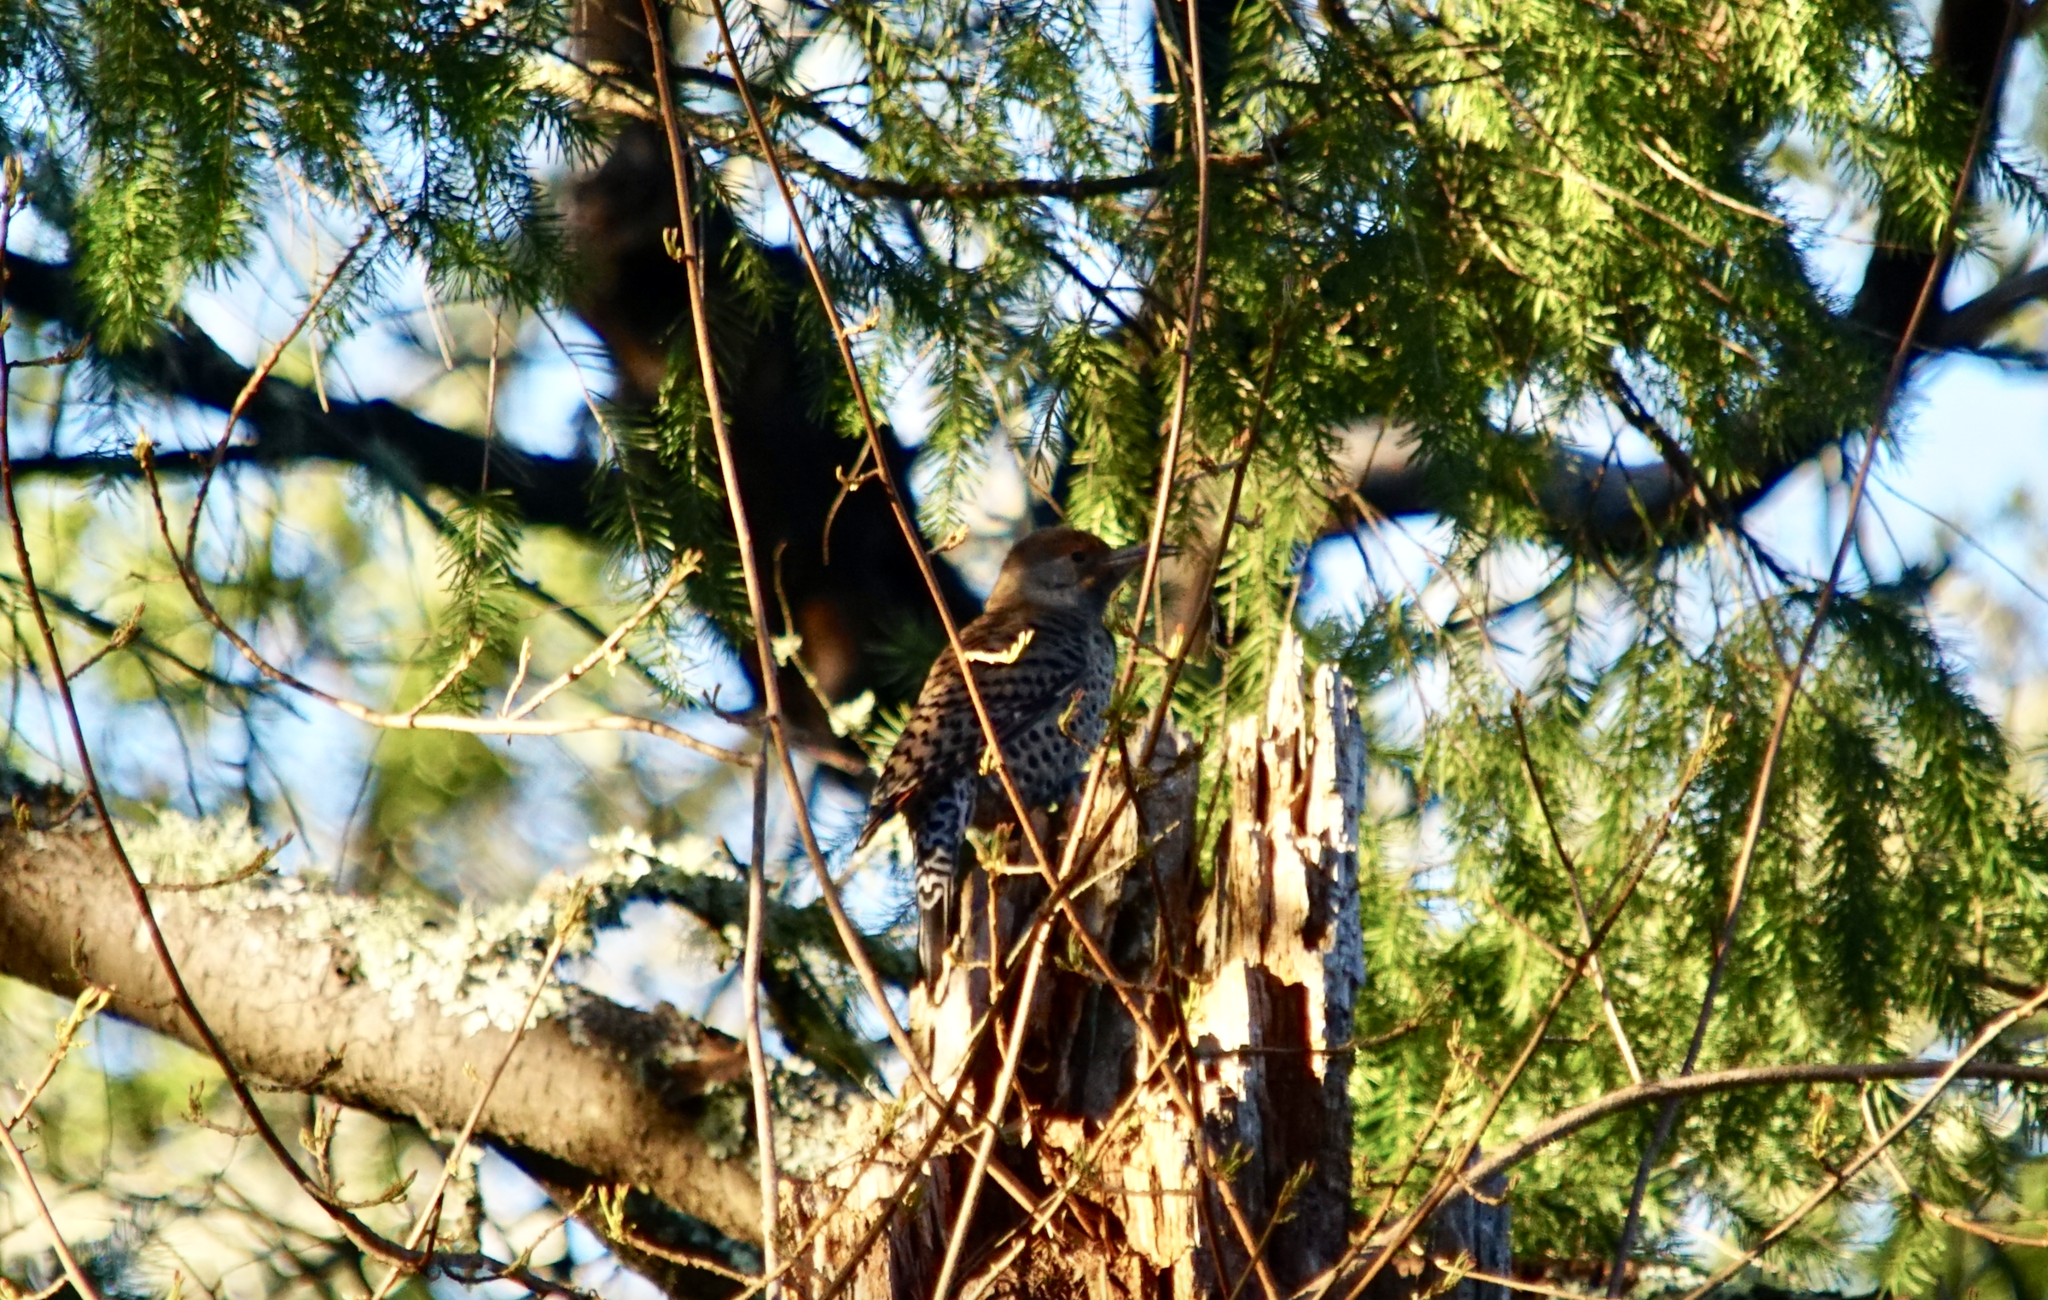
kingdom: Animalia
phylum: Chordata
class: Aves
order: Piciformes
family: Picidae
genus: Colaptes
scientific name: Colaptes auratus
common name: Northern flicker
